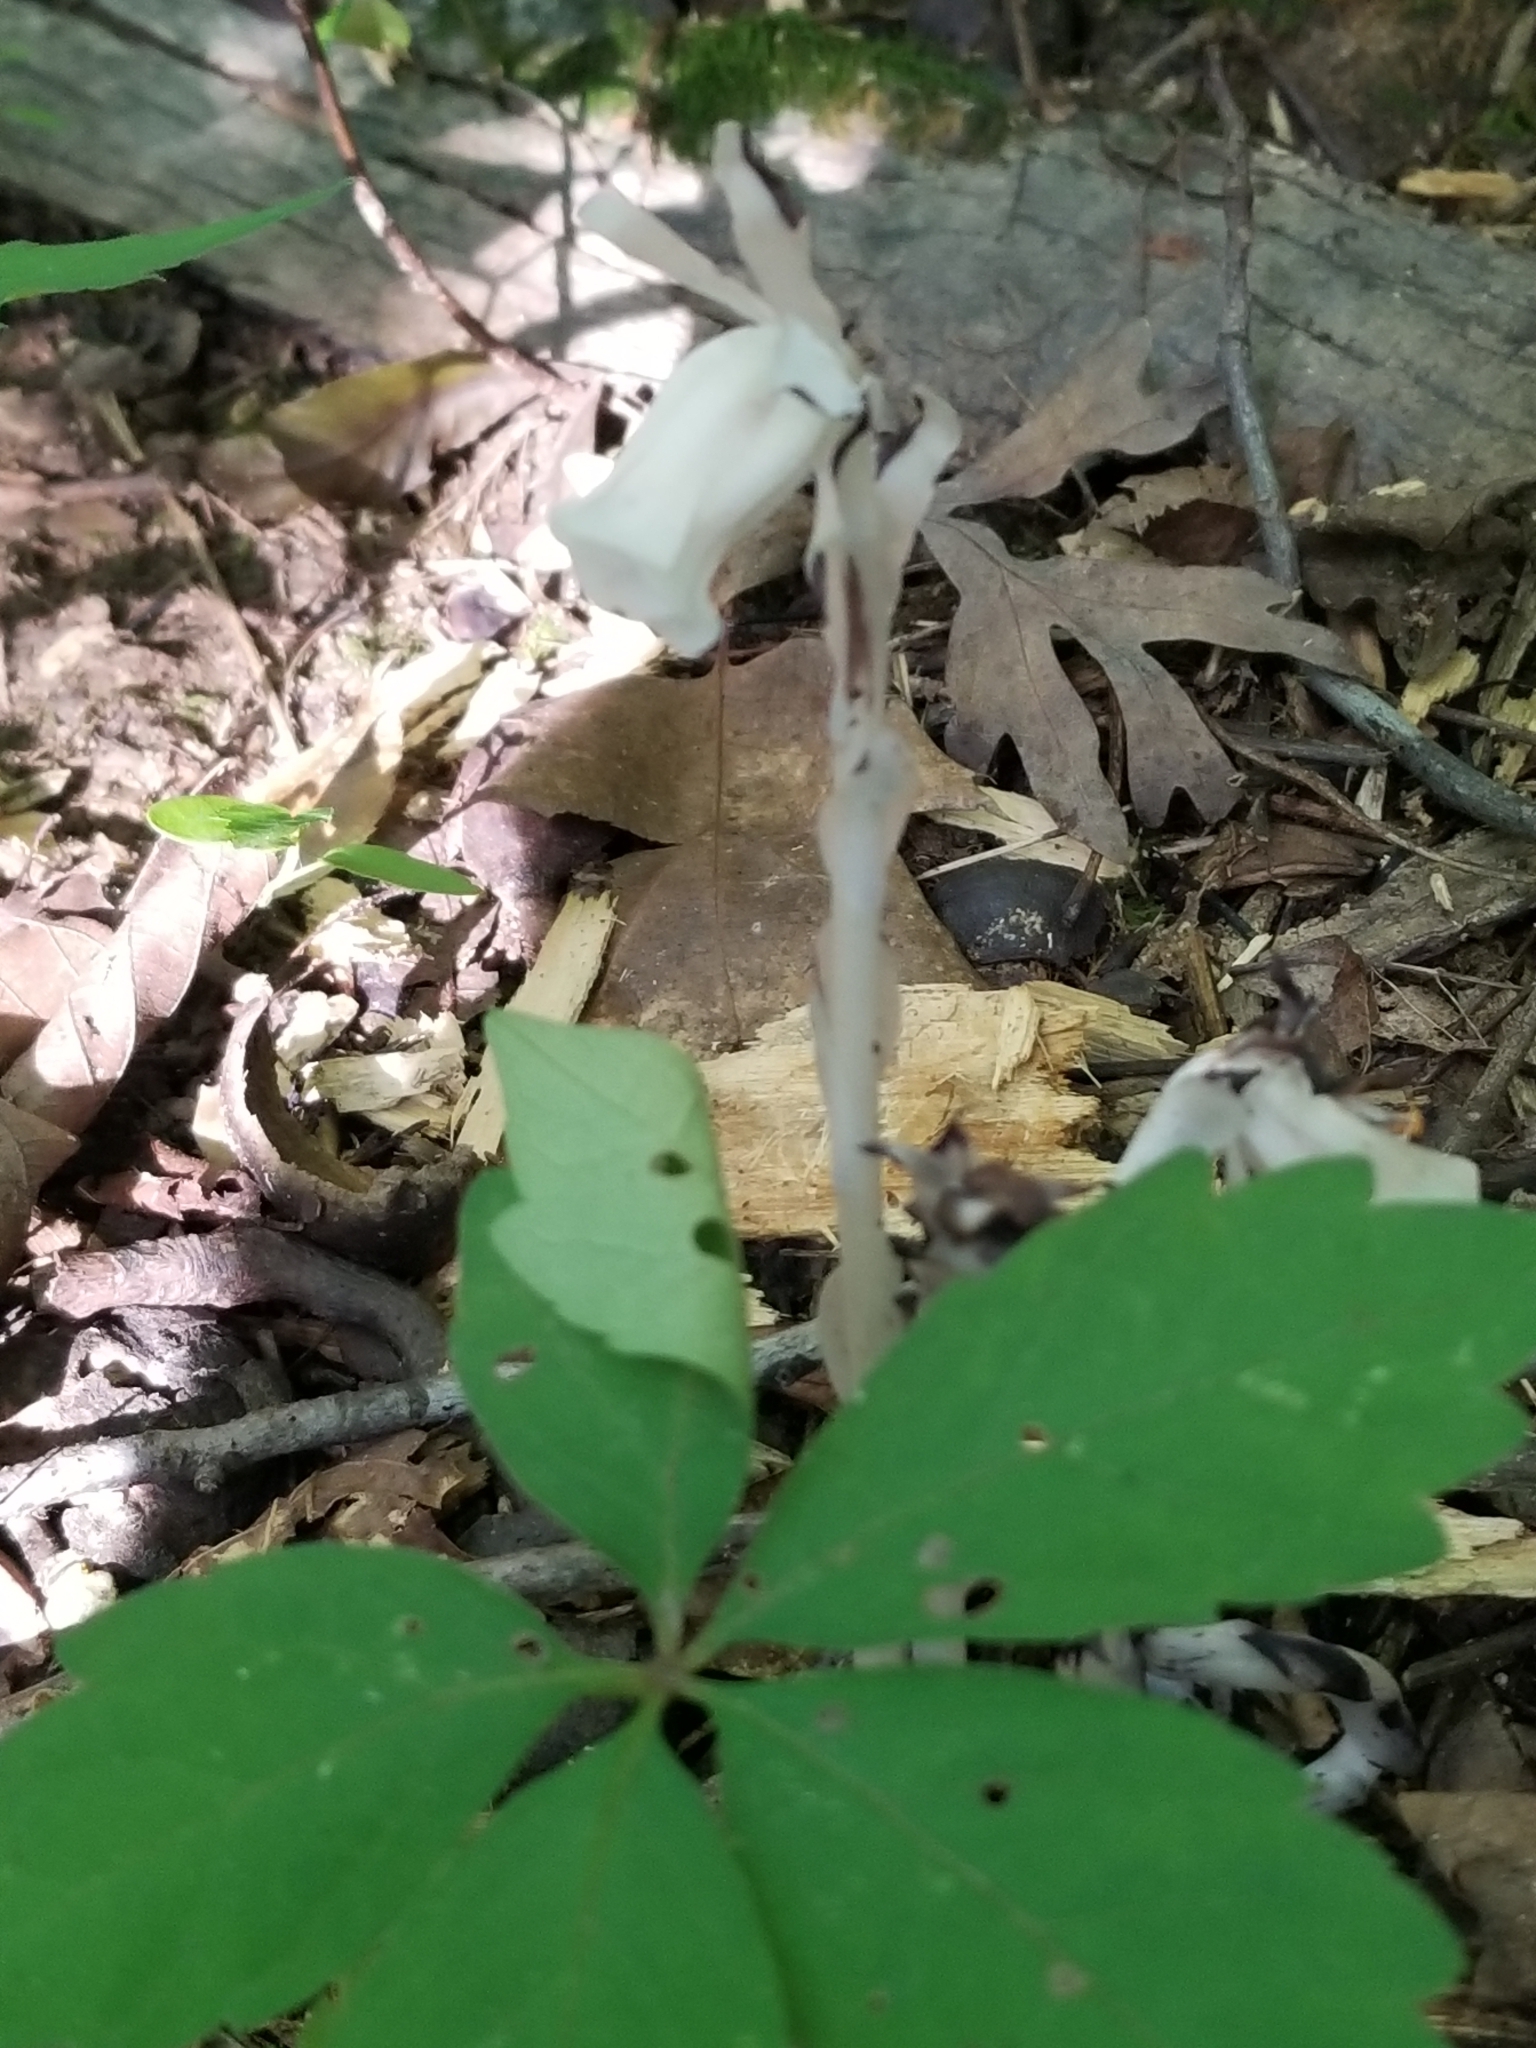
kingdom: Plantae
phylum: Tracheophyta
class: Magnoliopsida
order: Ericales
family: Ericaceae
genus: Monotropa
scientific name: Monotropa uniflora
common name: Convulsion root
